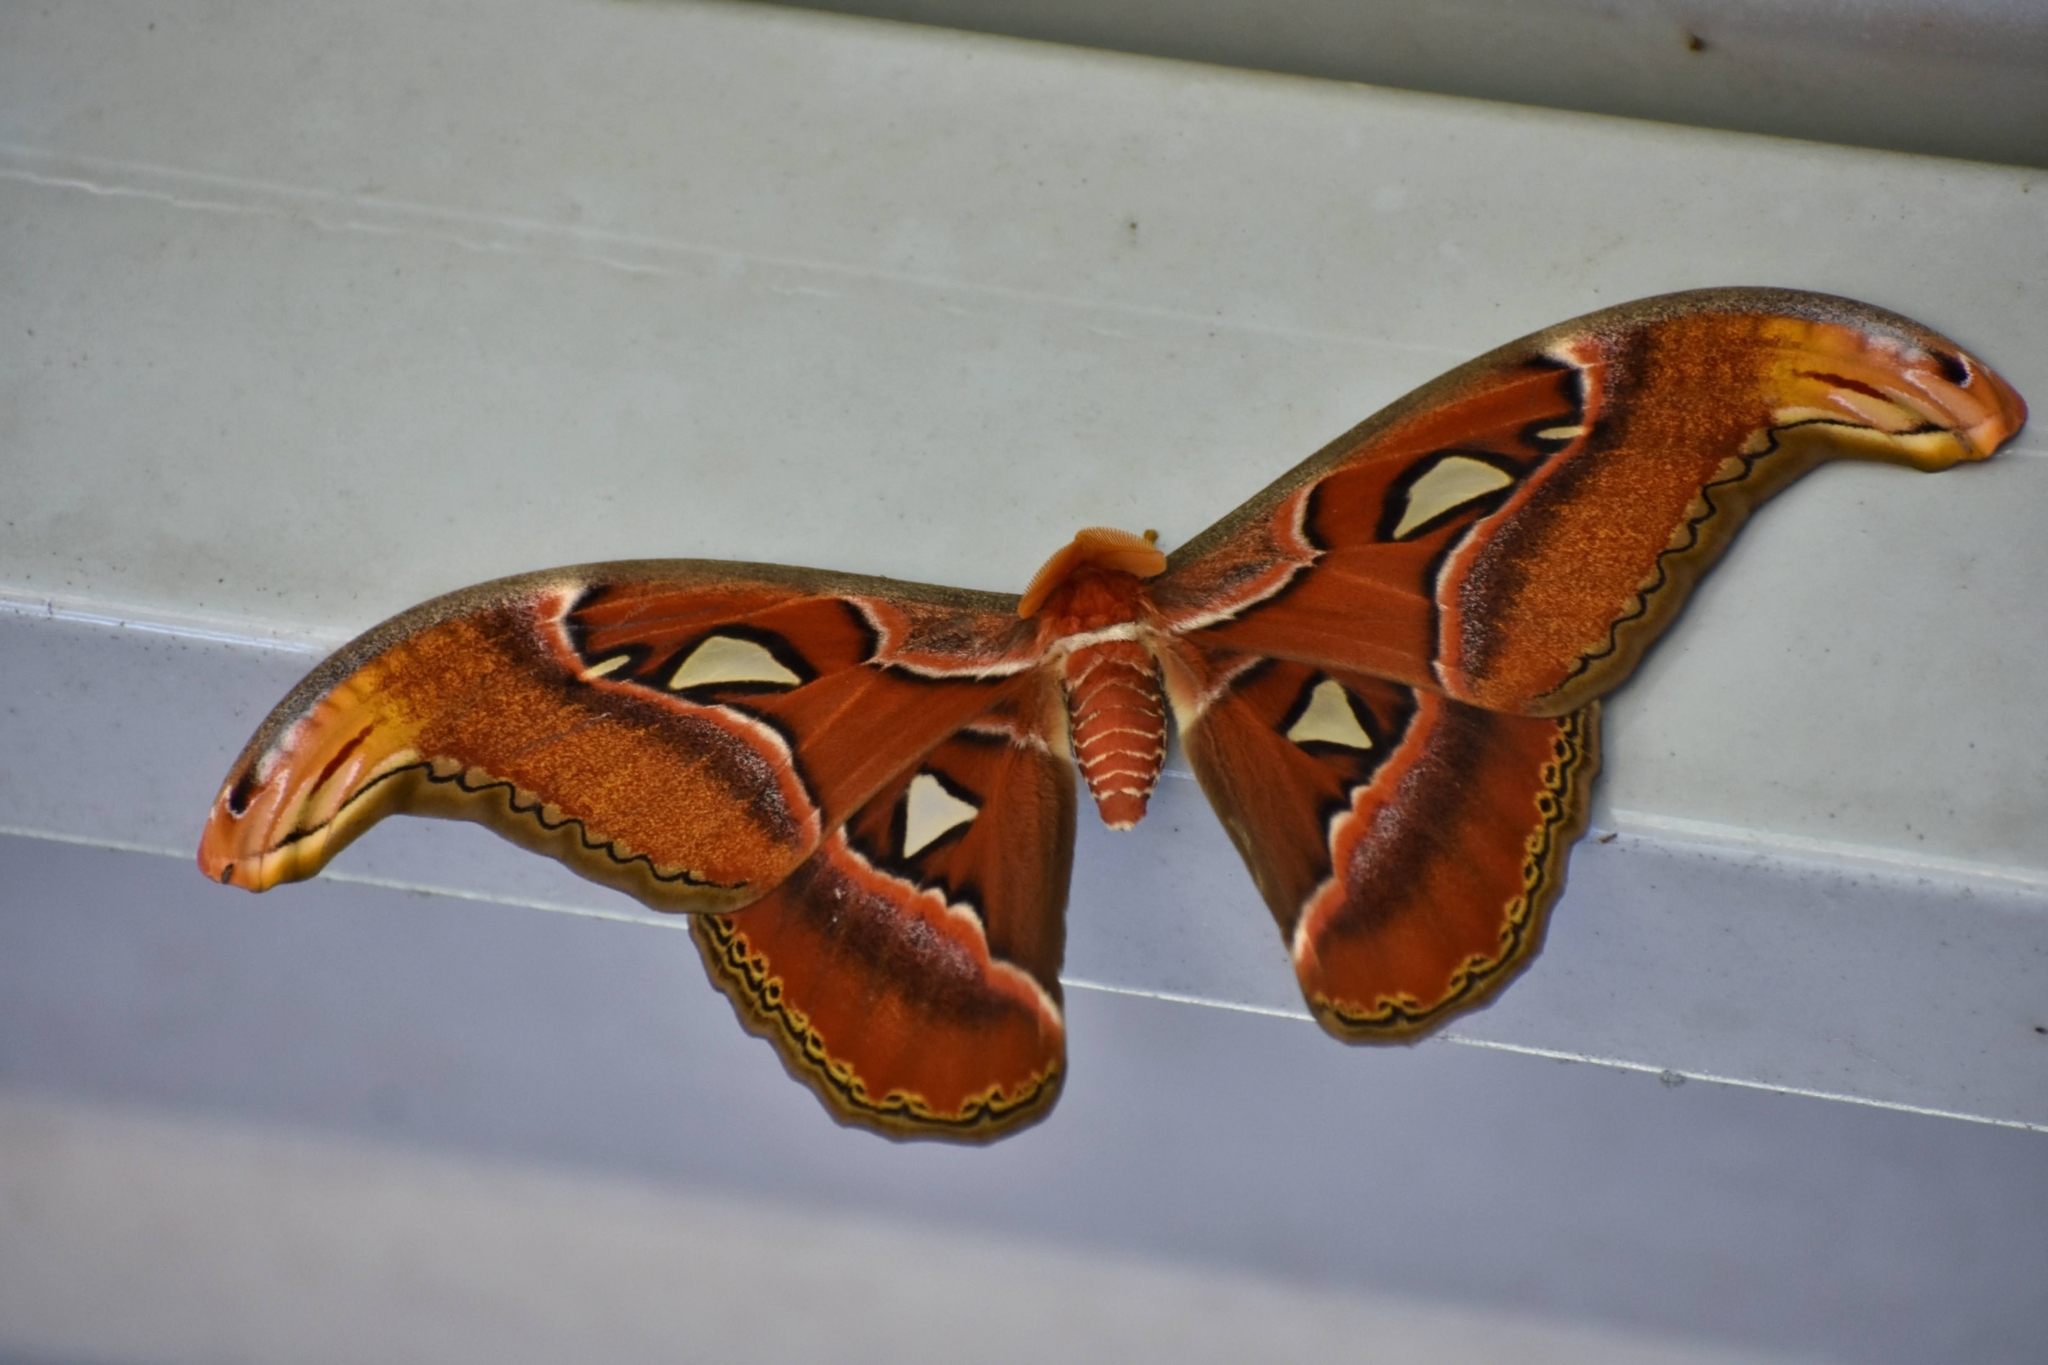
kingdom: Animalia
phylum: Arthropoda
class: Insecta
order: Lepidoptera
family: Saturniidae
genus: Attacus
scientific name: Attacus taprobanis
